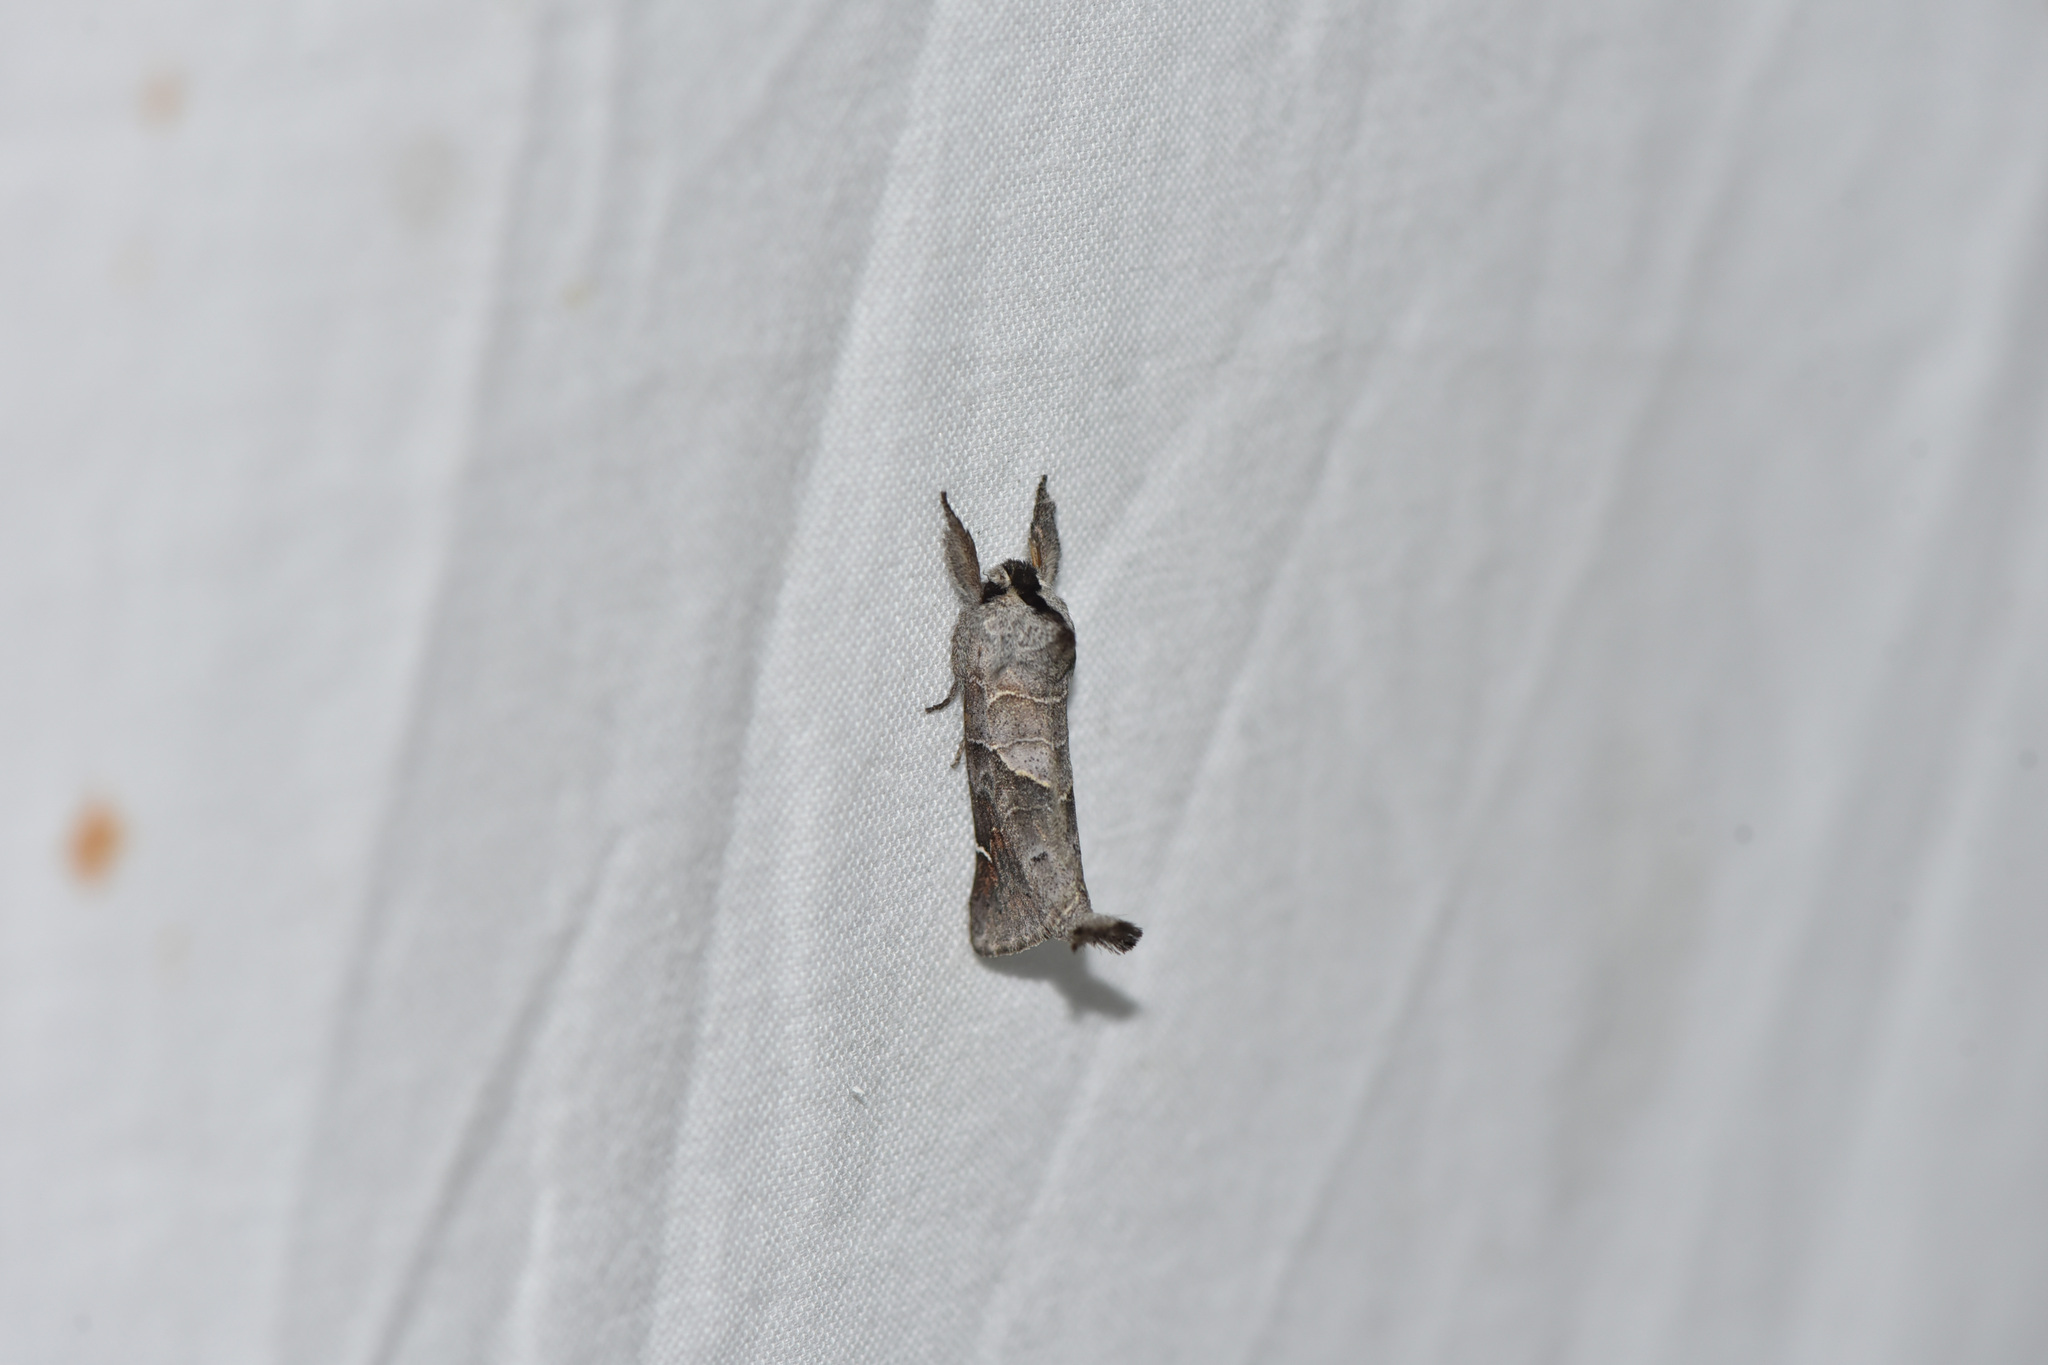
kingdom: Animalia
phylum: Arthropoda
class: Insecta
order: Lepidoptera
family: Notodontidae
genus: Clostera
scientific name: Clostera apicalis
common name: Apical prominent
